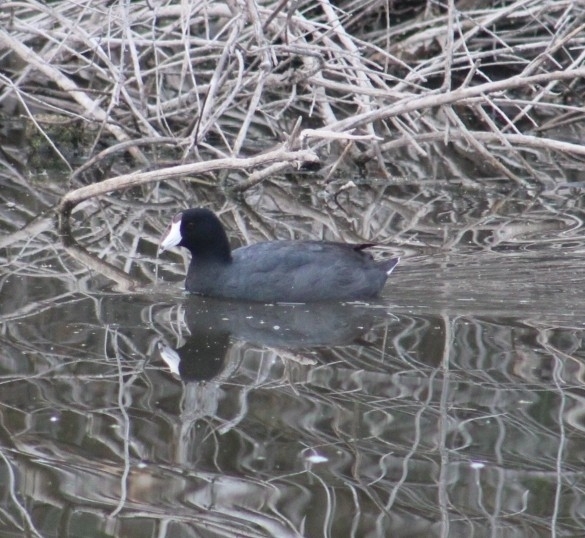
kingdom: Animalia
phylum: Chordata
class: Aves
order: Gruiformes
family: Rallidae
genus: Fulica
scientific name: Fulica americana
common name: American coot
